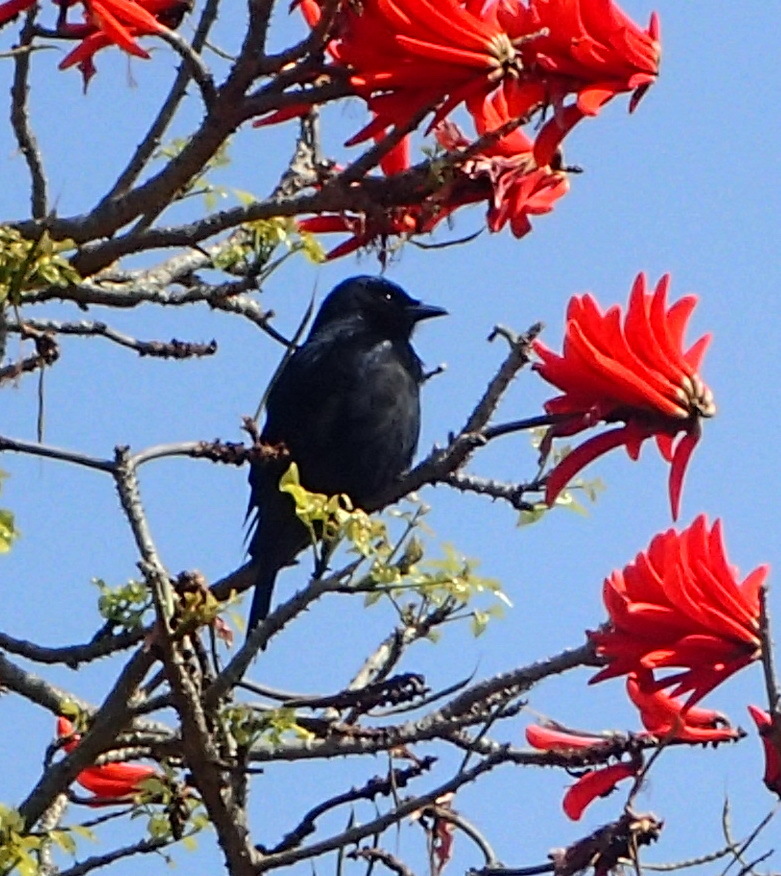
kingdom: Animalia
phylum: Chordata
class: Aves
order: Passeriformes
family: Dicruridae
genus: Dicrurus
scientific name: Dicrurus adsimilis
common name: Fork-tailed drongo
